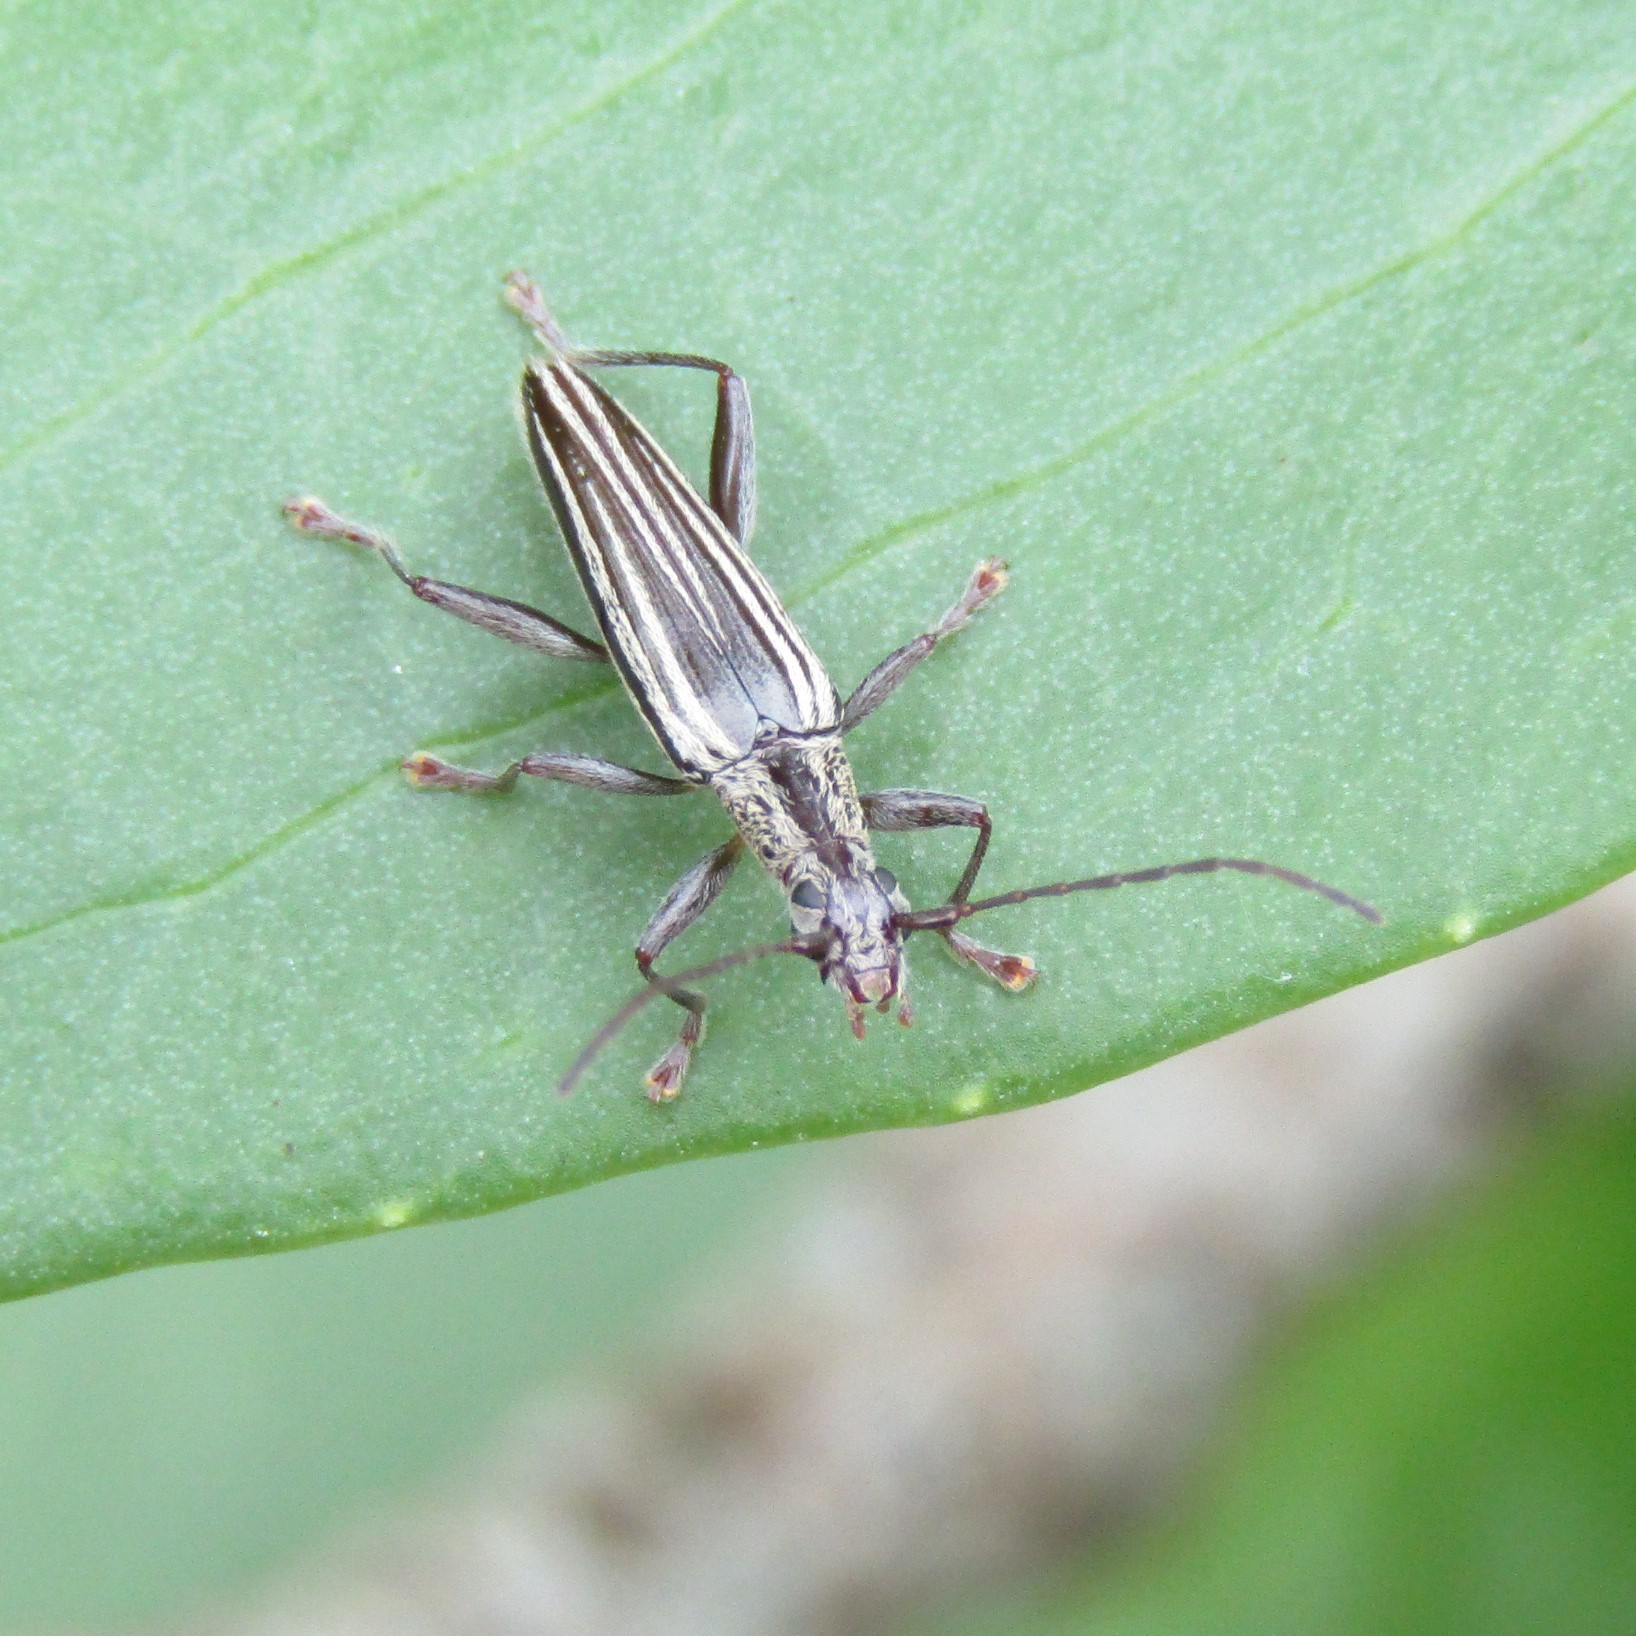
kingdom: Animalia
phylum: Arthropoda
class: Insecta
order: Coleoptera
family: Cerambycidae
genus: Coptomma
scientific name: Coptomma sulcatum
